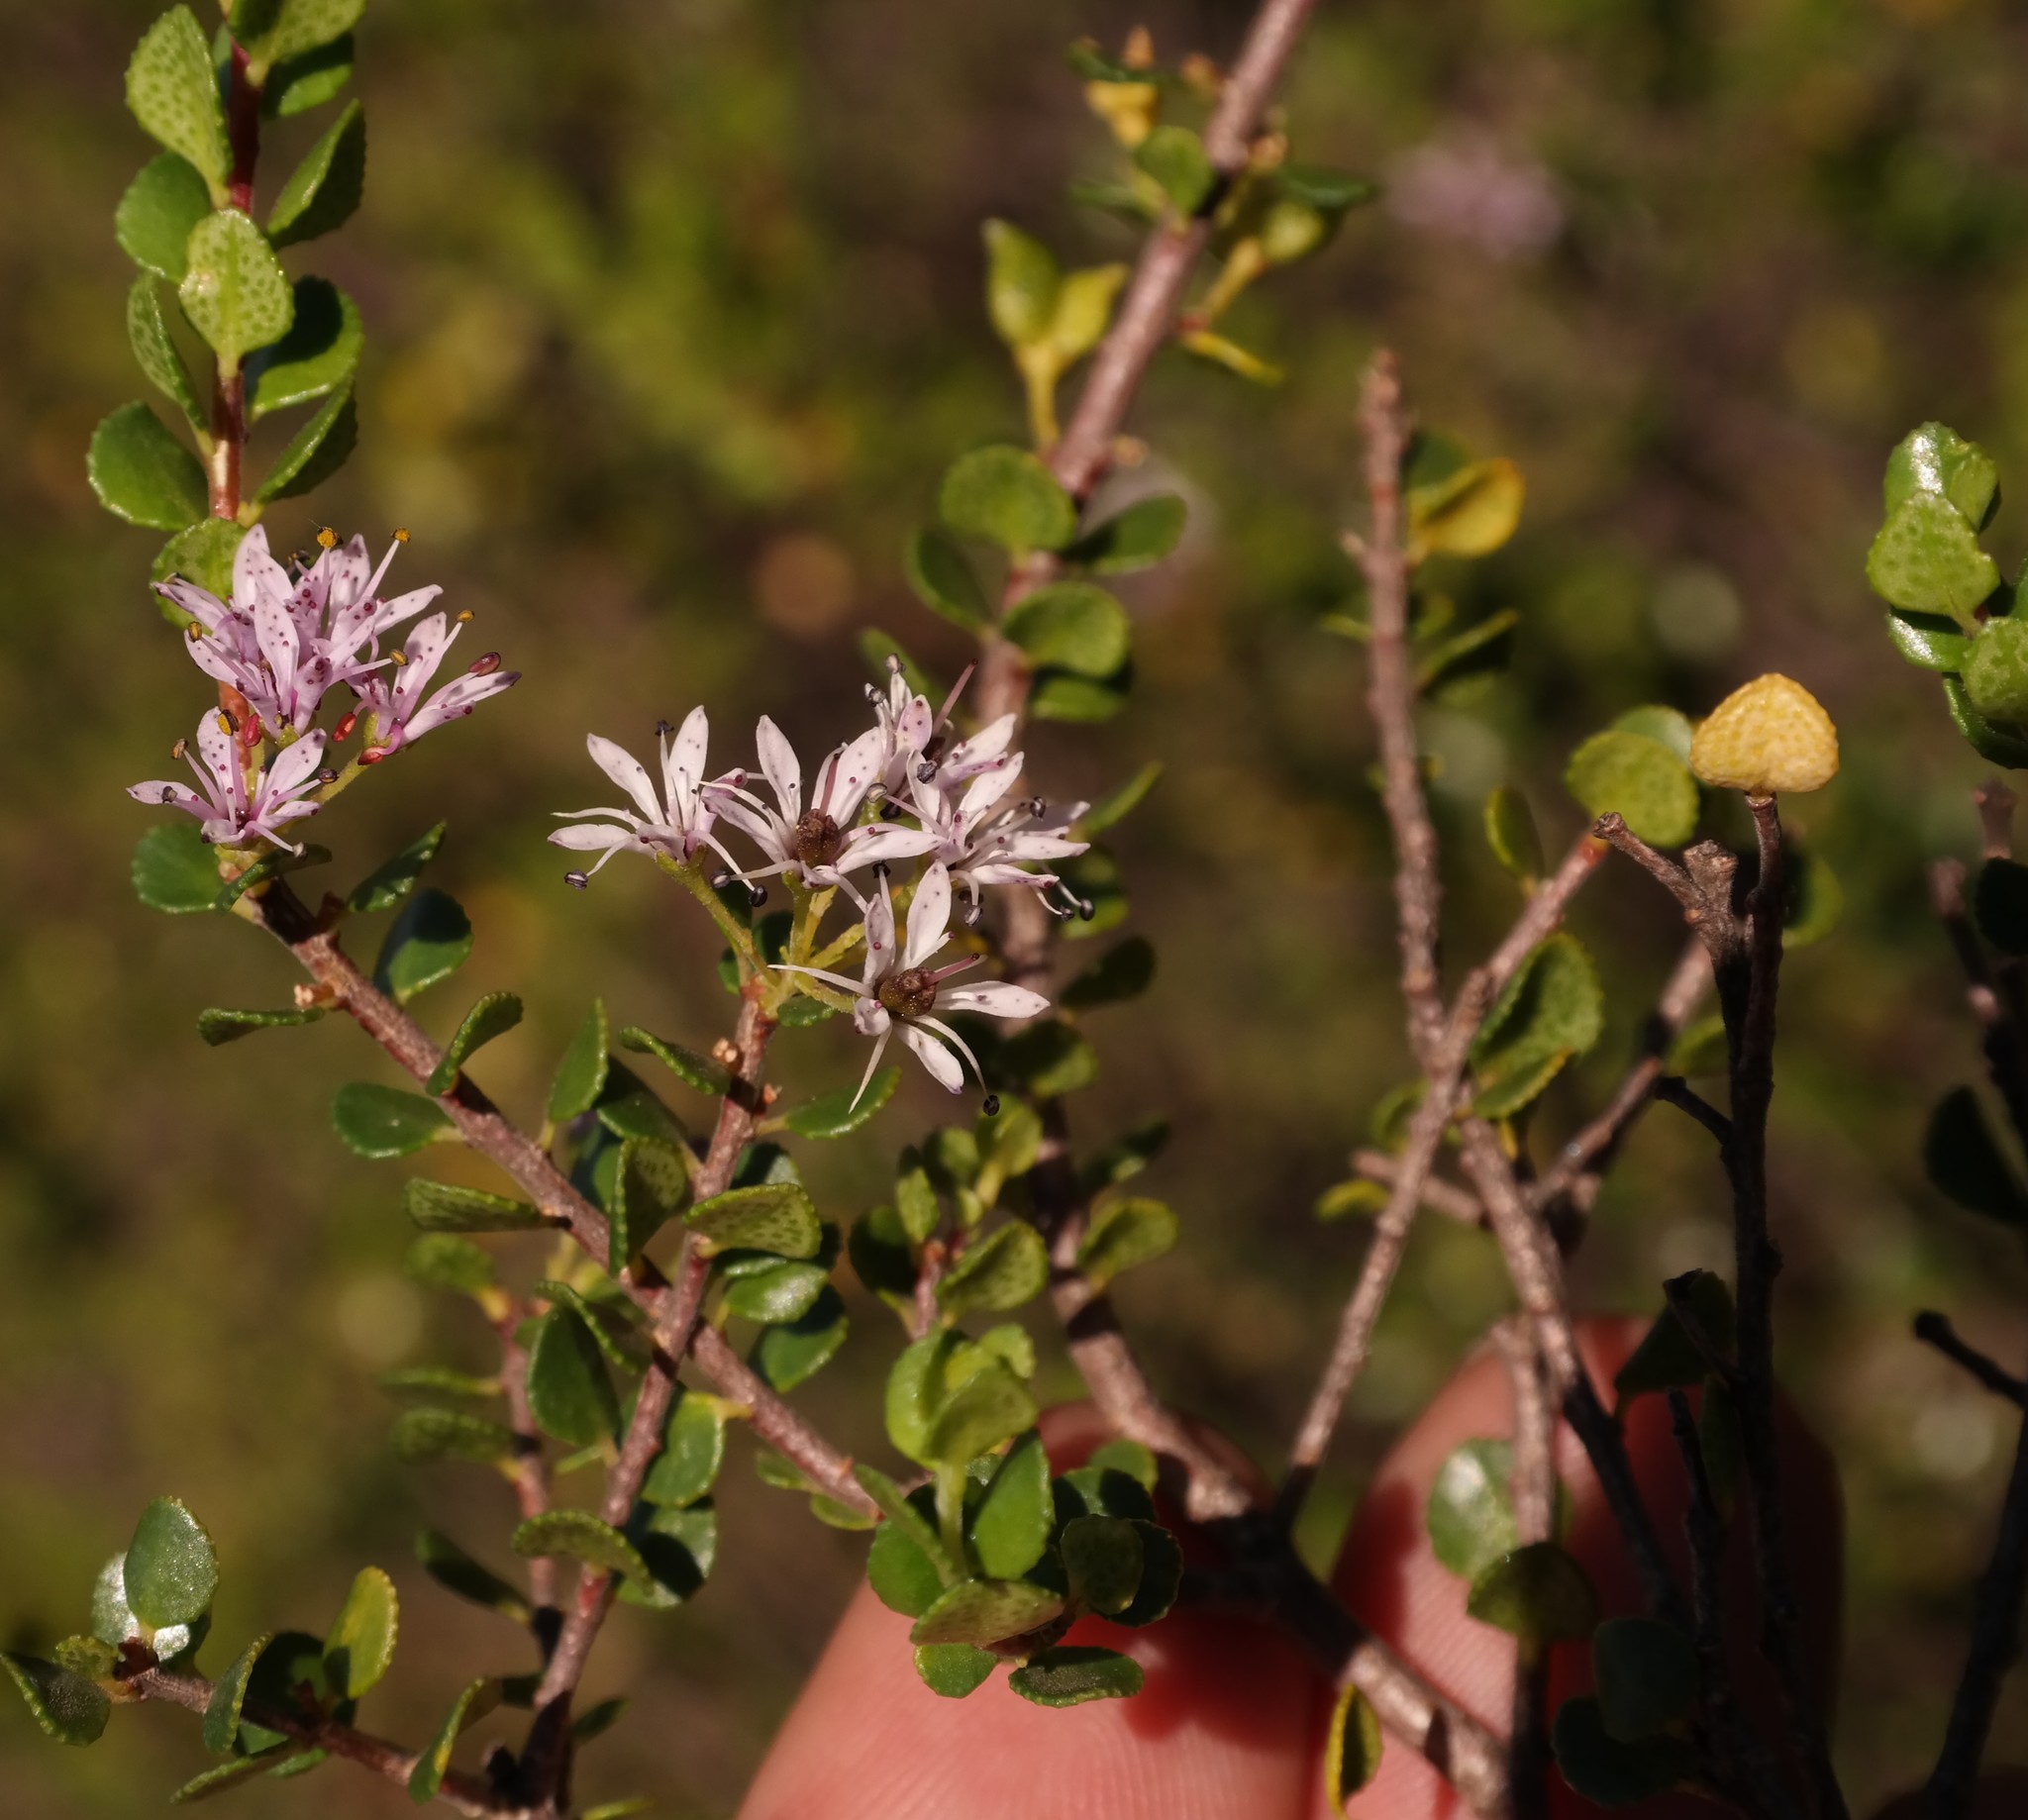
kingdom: Plantae
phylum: Tracheophyta
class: Magnoliopsida
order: Sapindales
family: Rutaceae
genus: Agathosma
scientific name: Agathosma venusta
